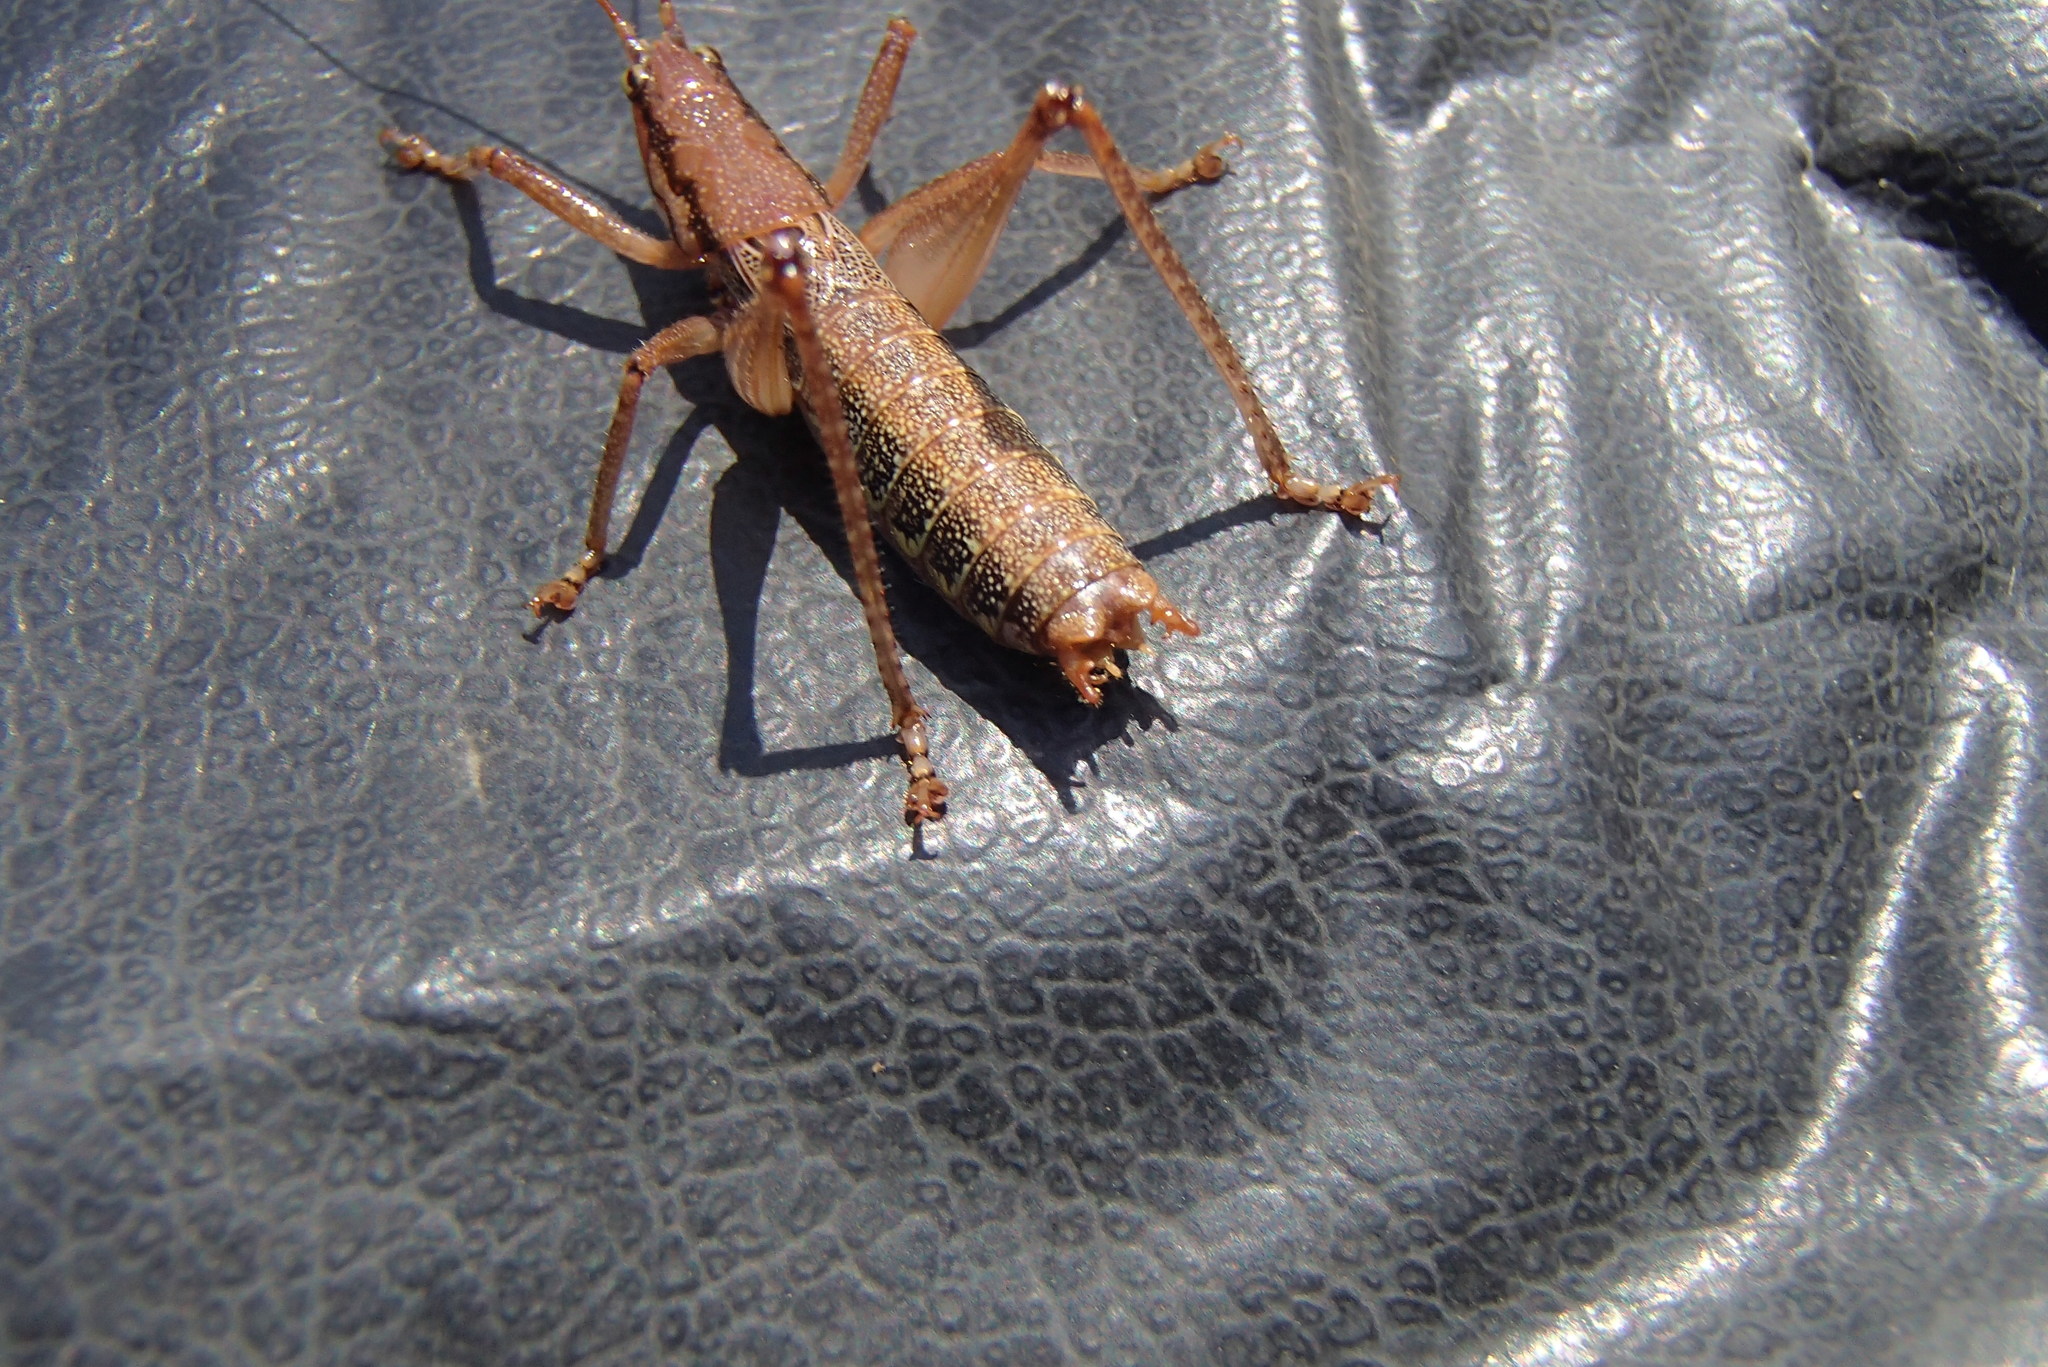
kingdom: Animalia
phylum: Arthropoda
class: Insecta
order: Orthoptera
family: Tettigoniidae
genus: Coptaspis
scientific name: Coptaspis brevipennis
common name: Sidney woodland katydid
